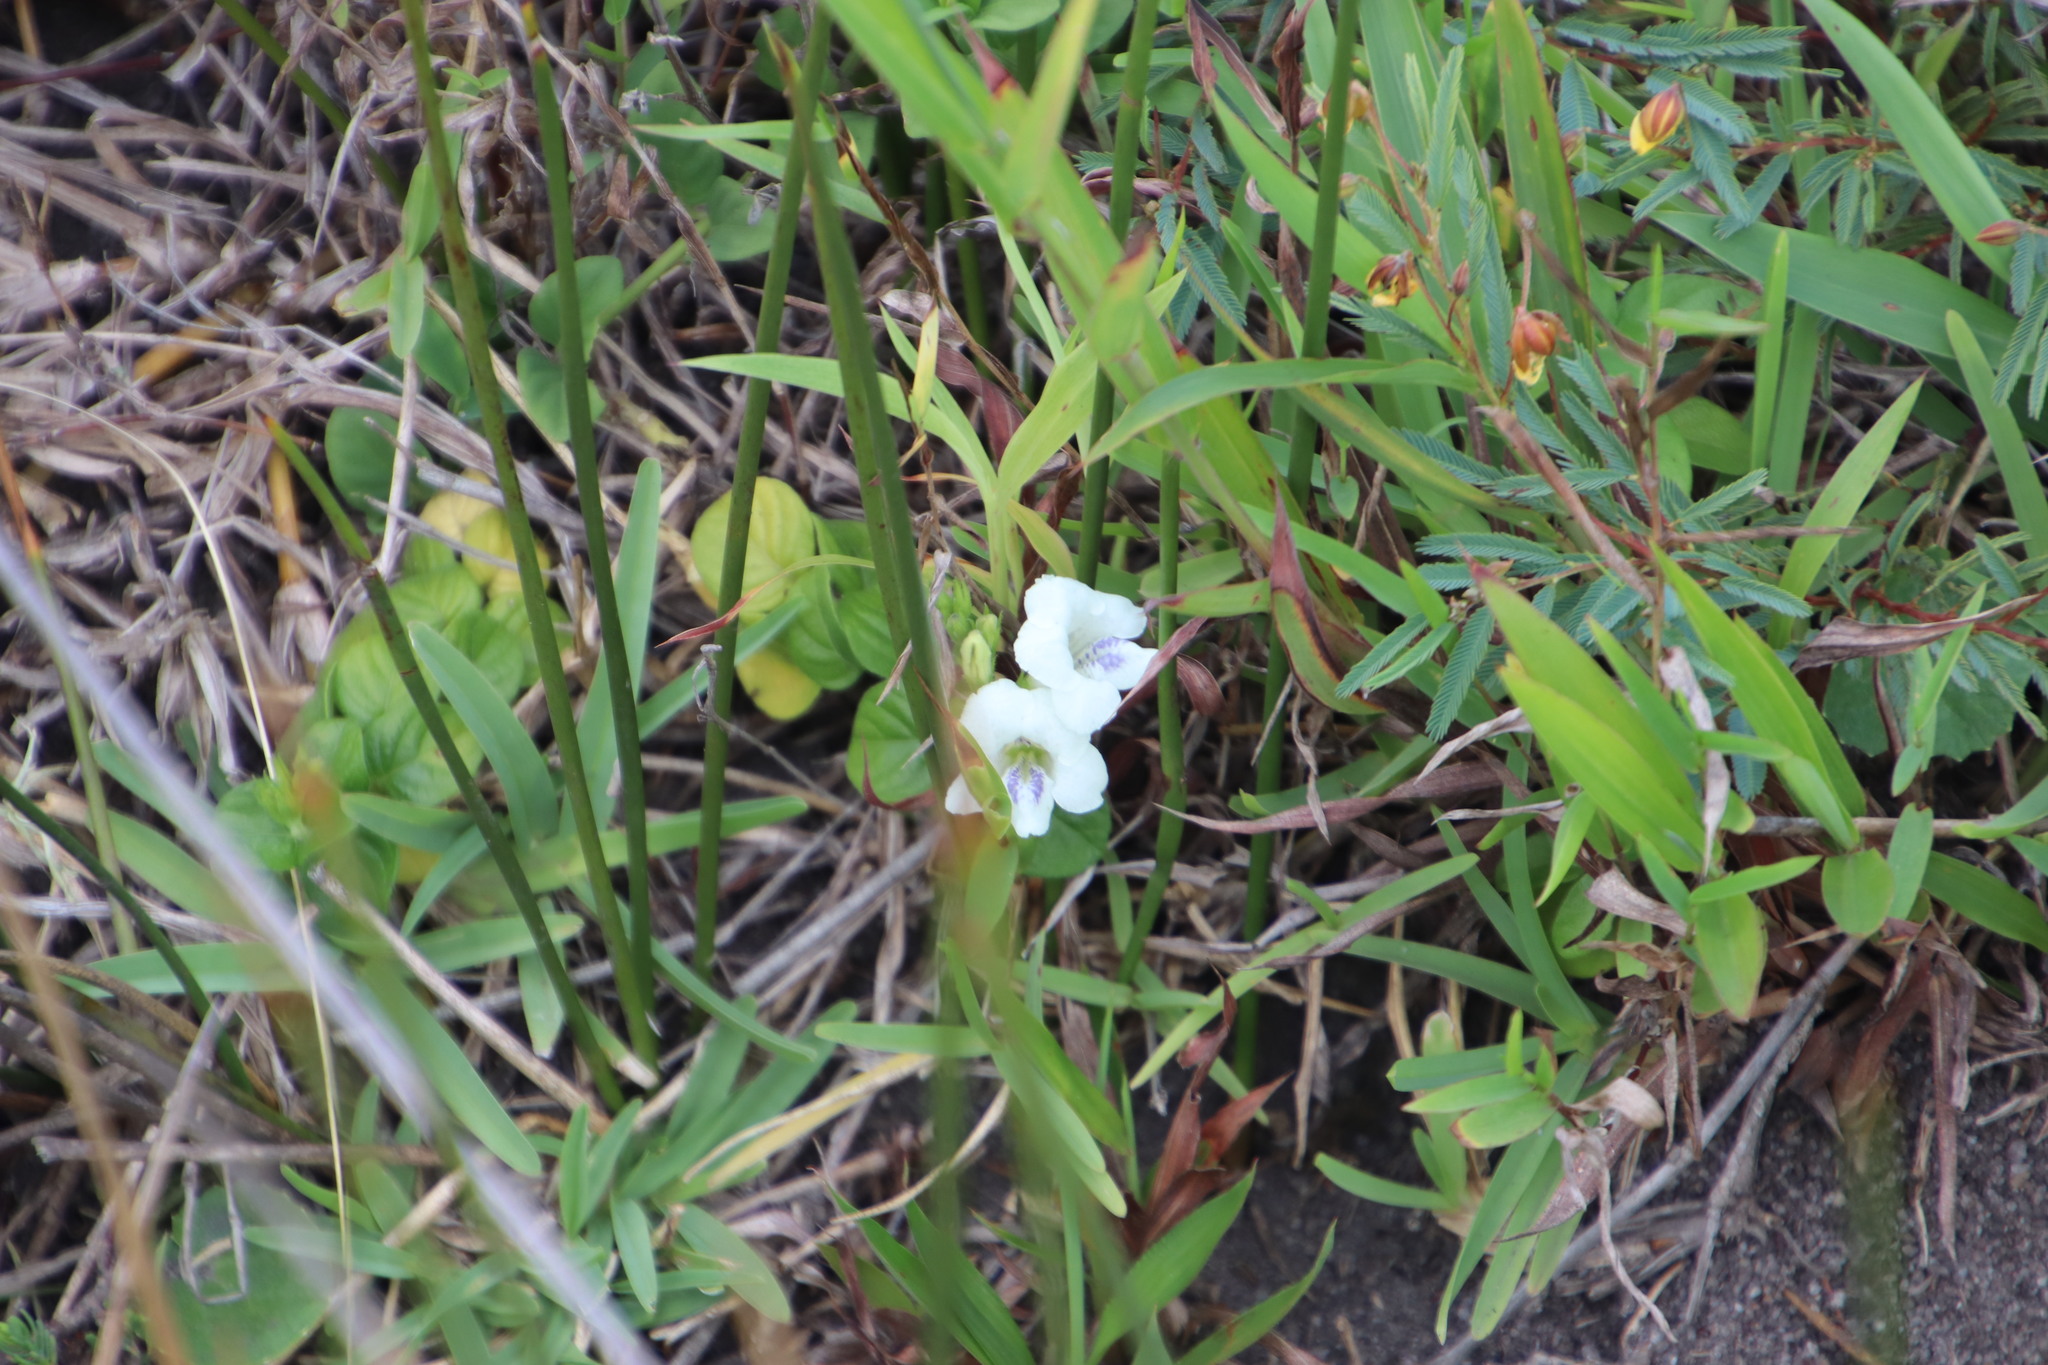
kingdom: Plantae
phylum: Tracheophyta
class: Magnoliopsida
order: Lamiales
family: Acanthaceae
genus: Asystasia
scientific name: Asystasia intrusa
